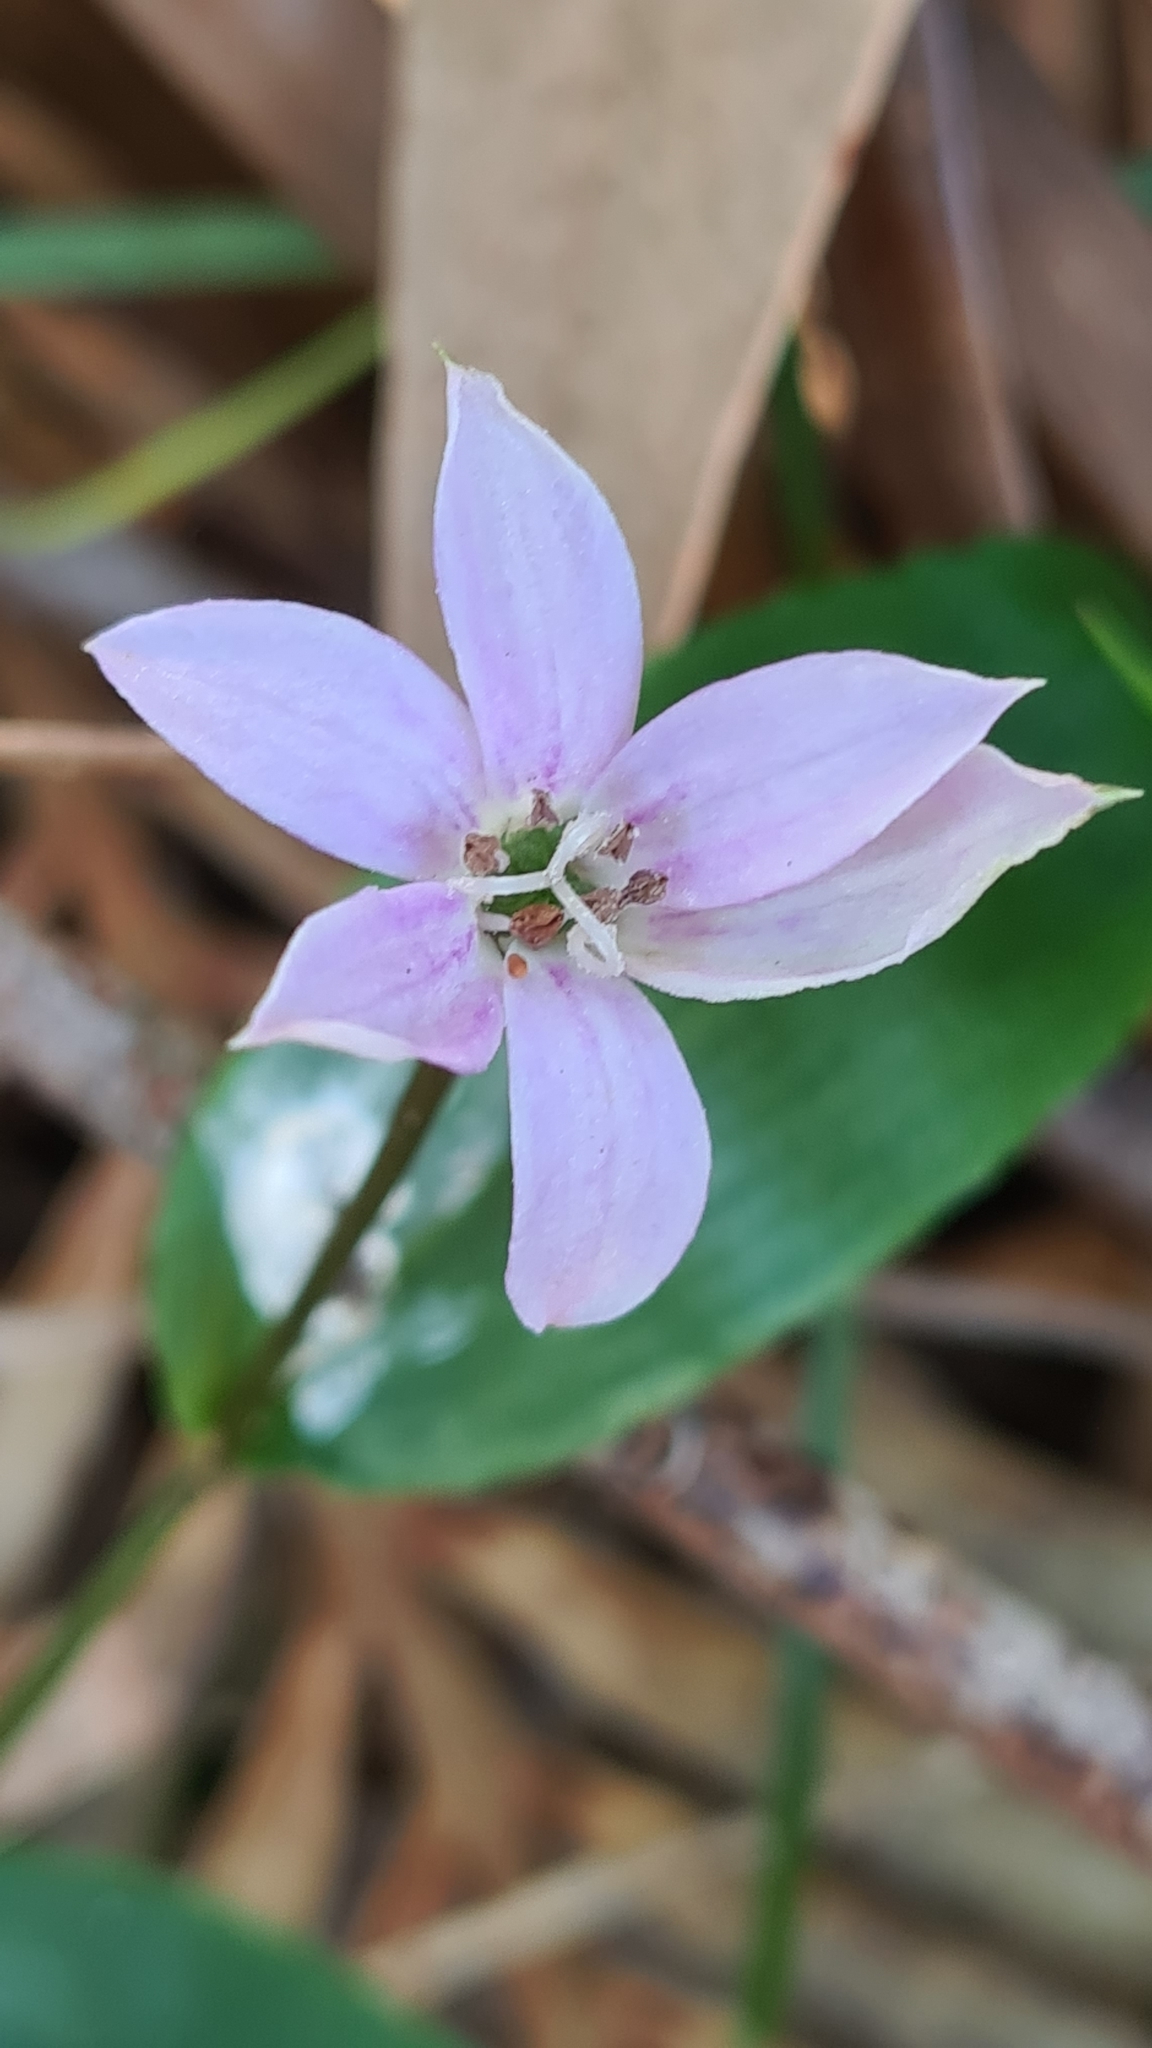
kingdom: Plantae
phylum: Tracheophyta
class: Liliopsida
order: Liliales
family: Colchicaceae
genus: Schelhammera
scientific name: Schelhammera undulata
